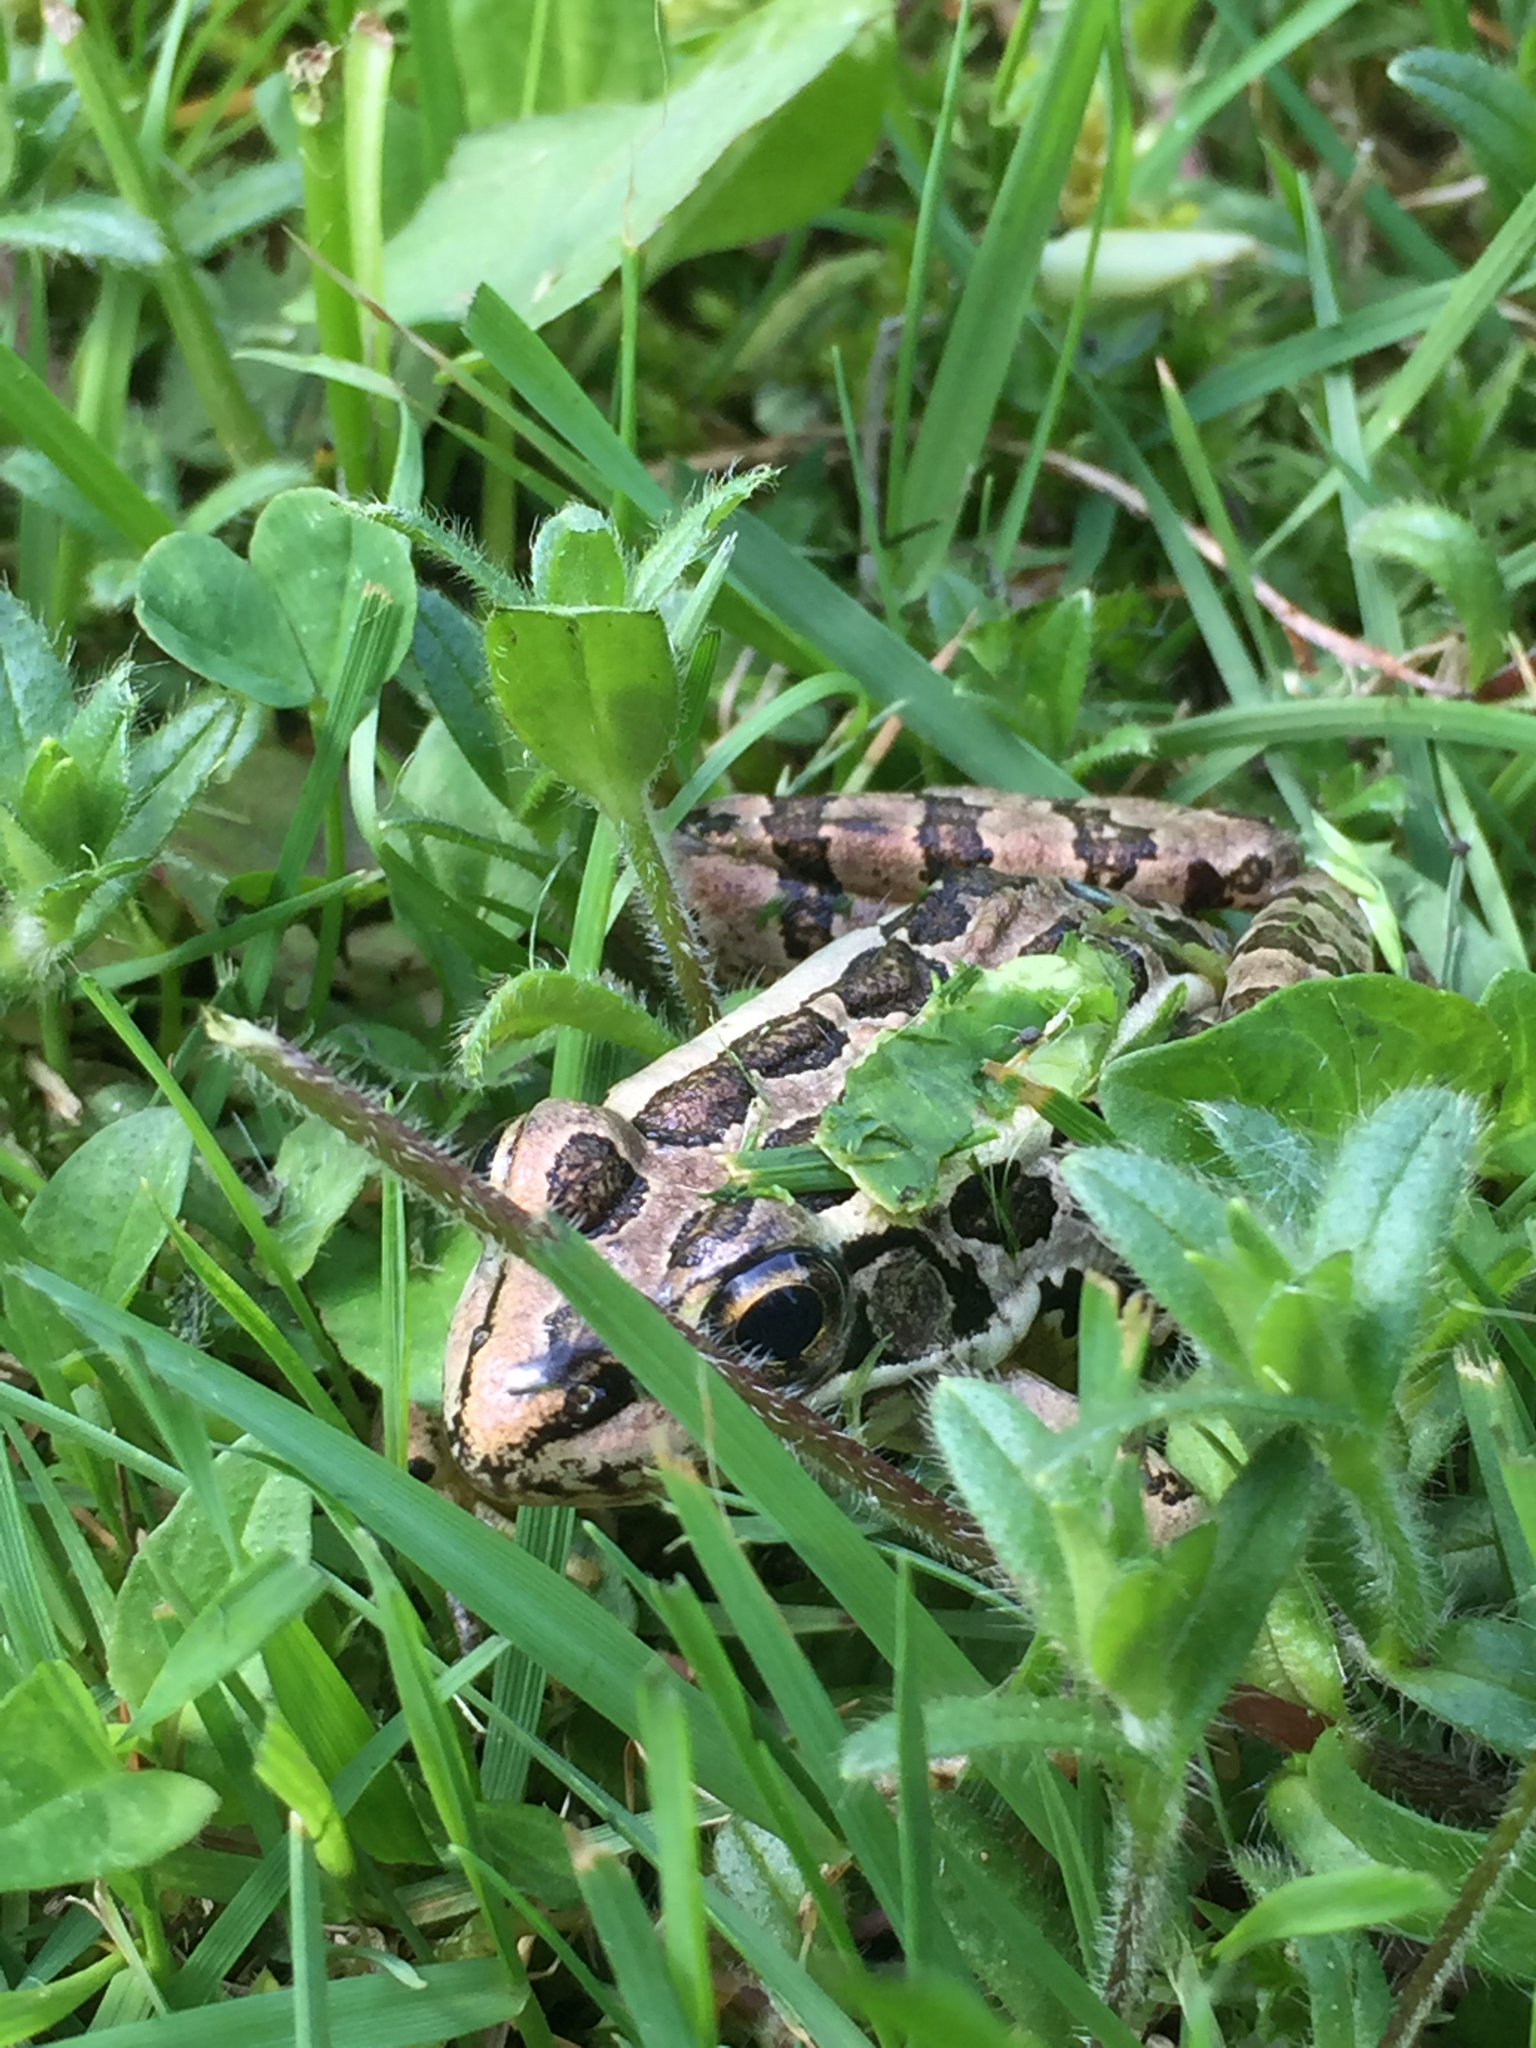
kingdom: Animalia
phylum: Chordata
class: Amphibia
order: Anura
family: Ranidae
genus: Lithobates
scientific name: Lithobates palustris
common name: Pickerel frog
